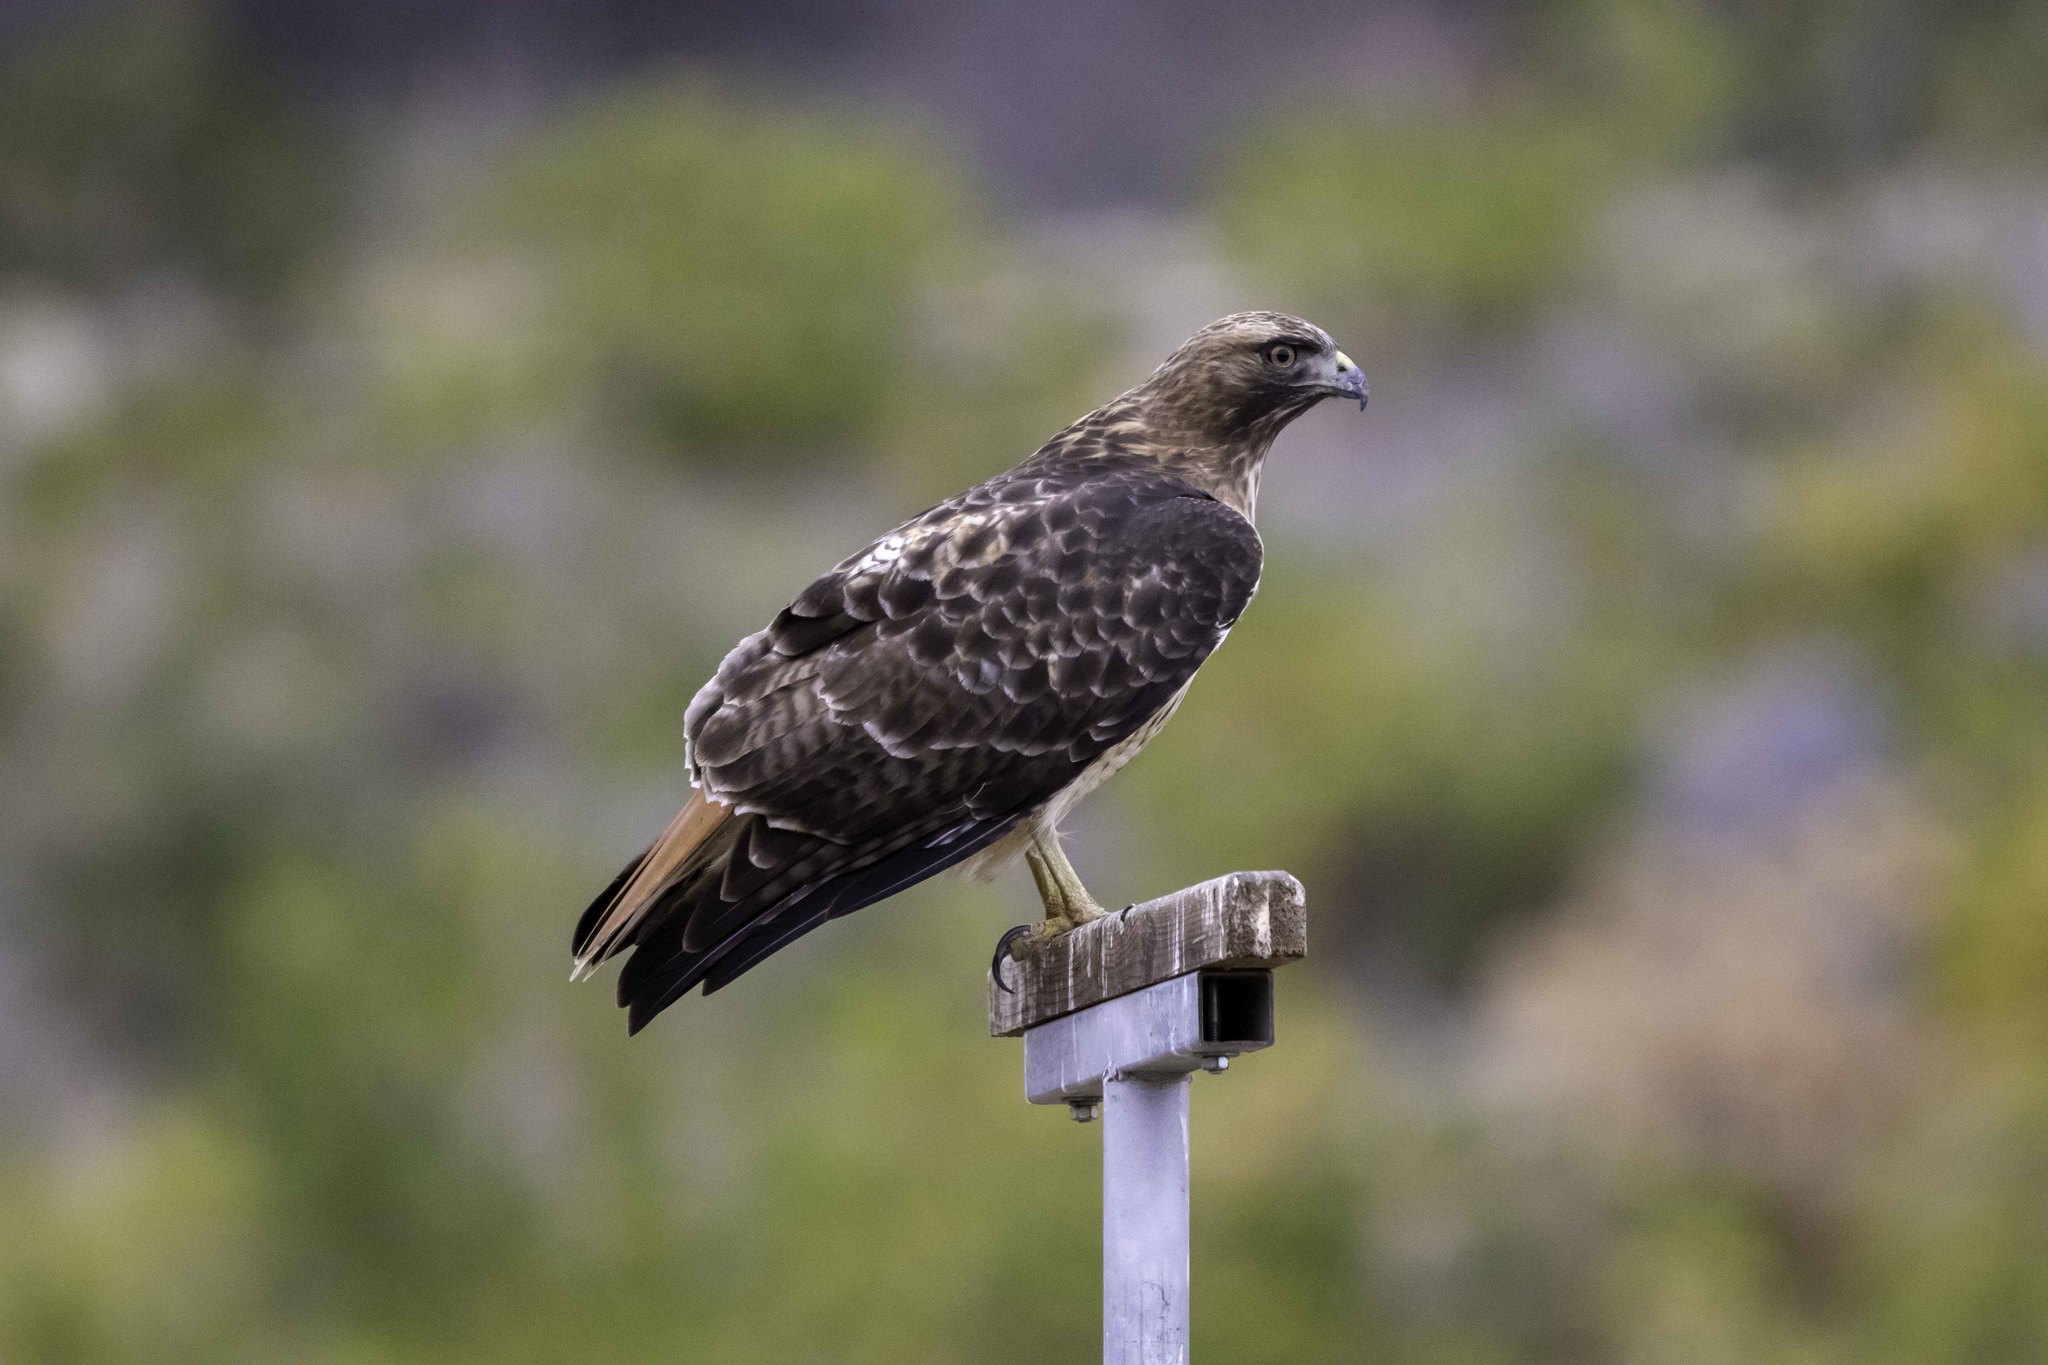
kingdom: Animalia
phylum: Chordata
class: Aves
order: Accipitriformes
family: Accipitridae
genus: Buteo
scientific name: Buteo jamaicensis
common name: Red-tailed hawk
